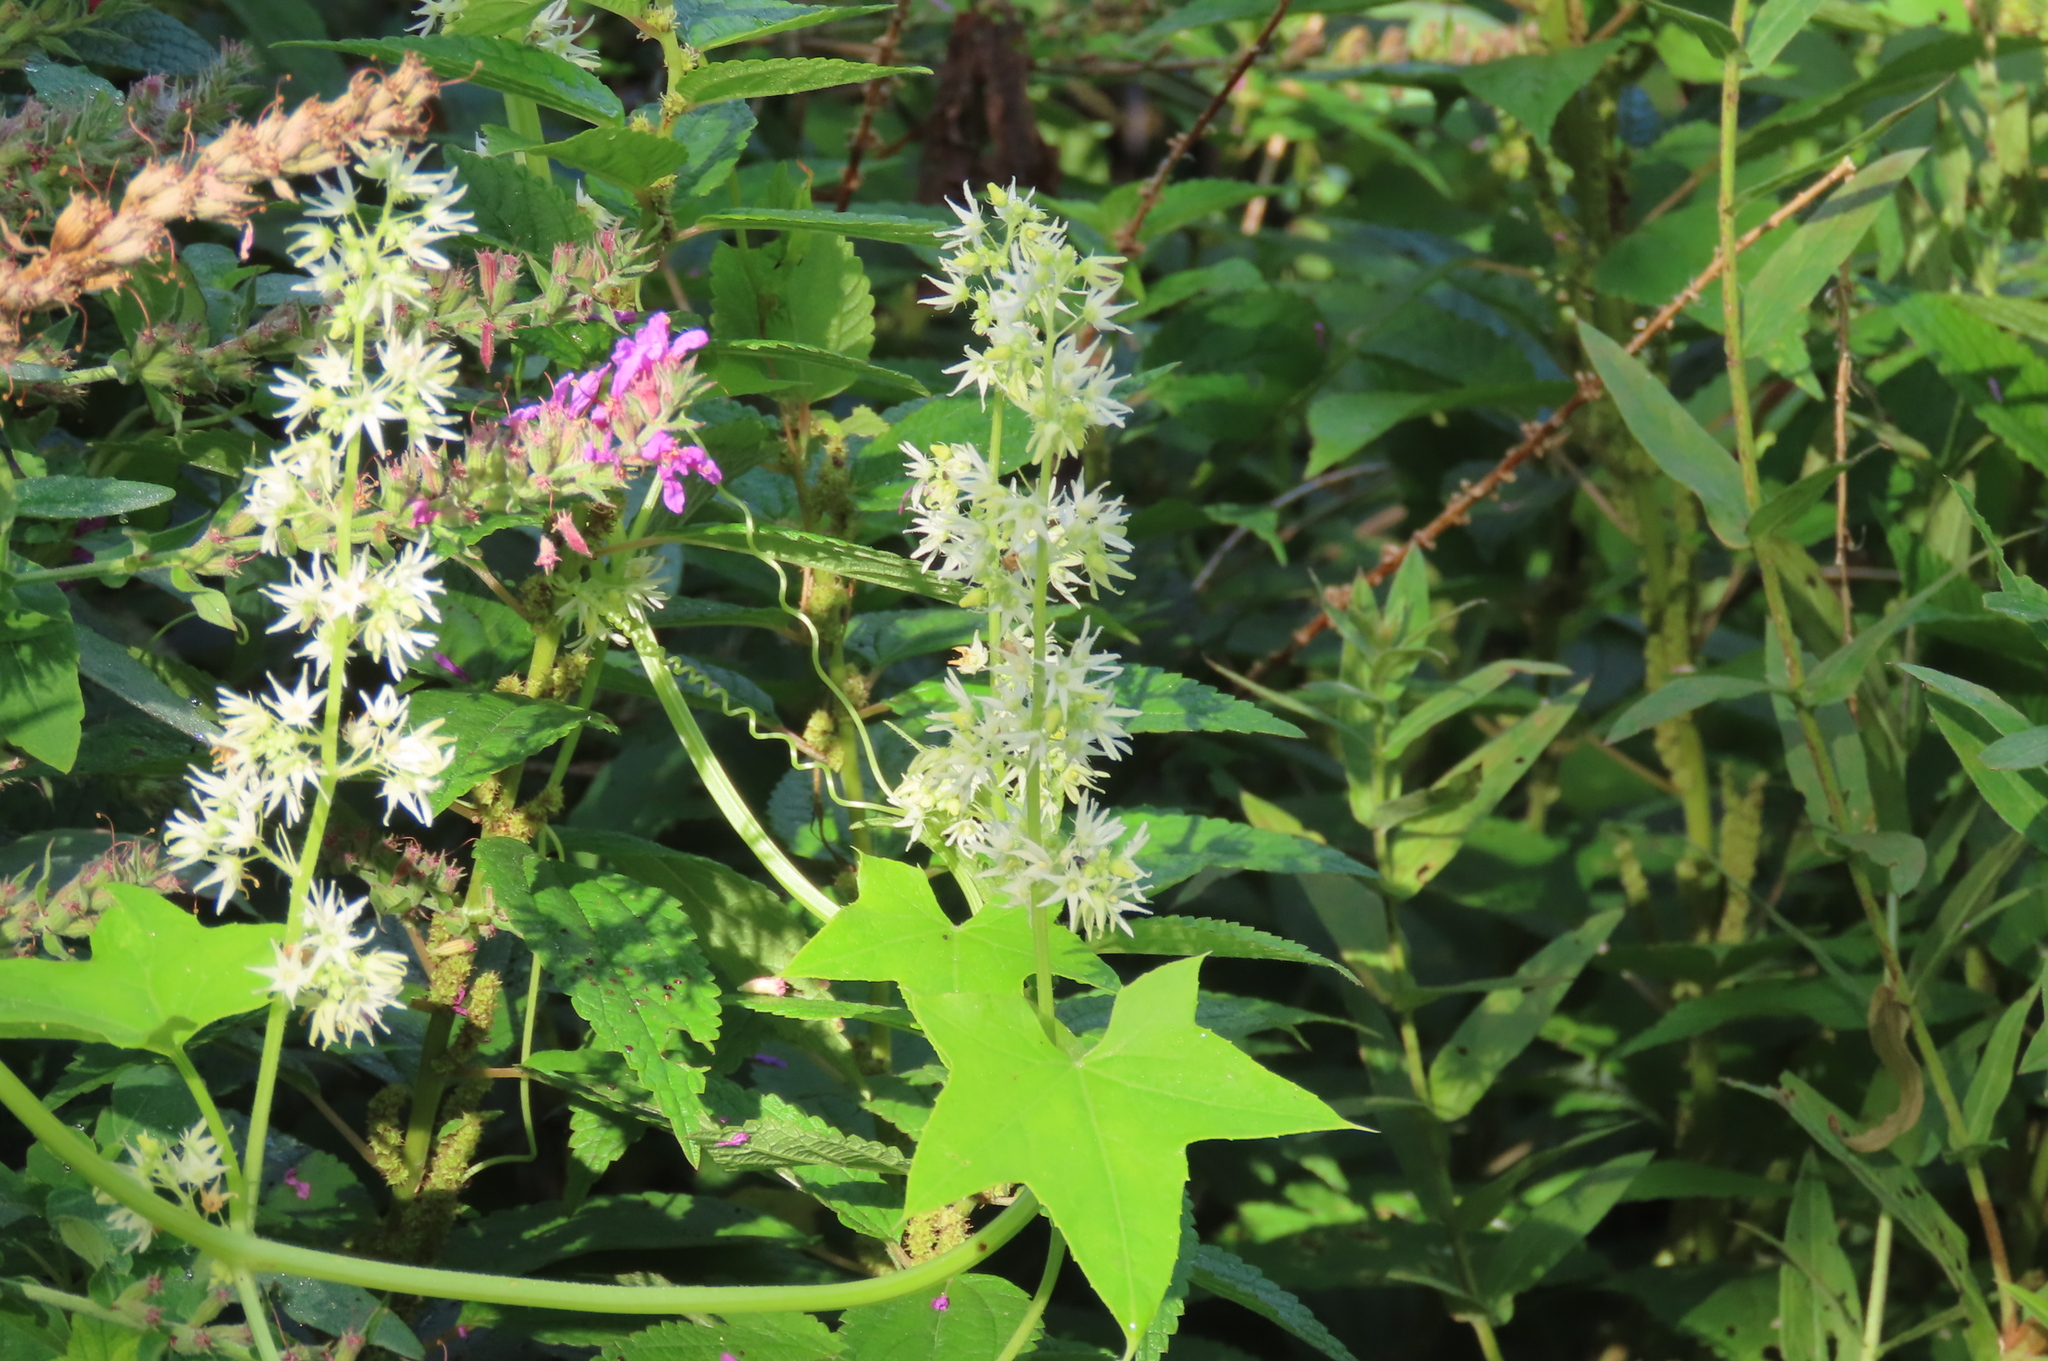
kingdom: Plantae
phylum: Tracheophyta
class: Magnoliopsida
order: Cucurbitales
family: Cucurbitaceae
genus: Echinocystis
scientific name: Echinocystis lobata
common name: Wild cucumber
